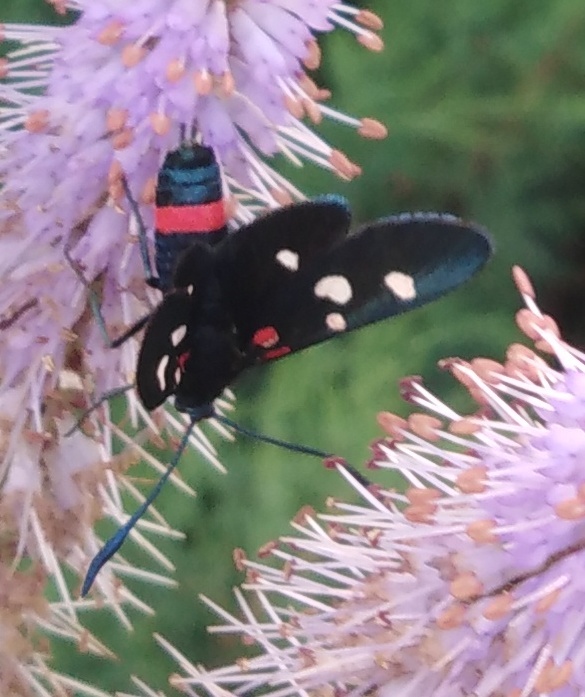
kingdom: Animalia
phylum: Arthropoda
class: Insecta
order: Lepidoptera
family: Zygaenidae
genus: Zygaena
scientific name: Zygaena ephialtes
